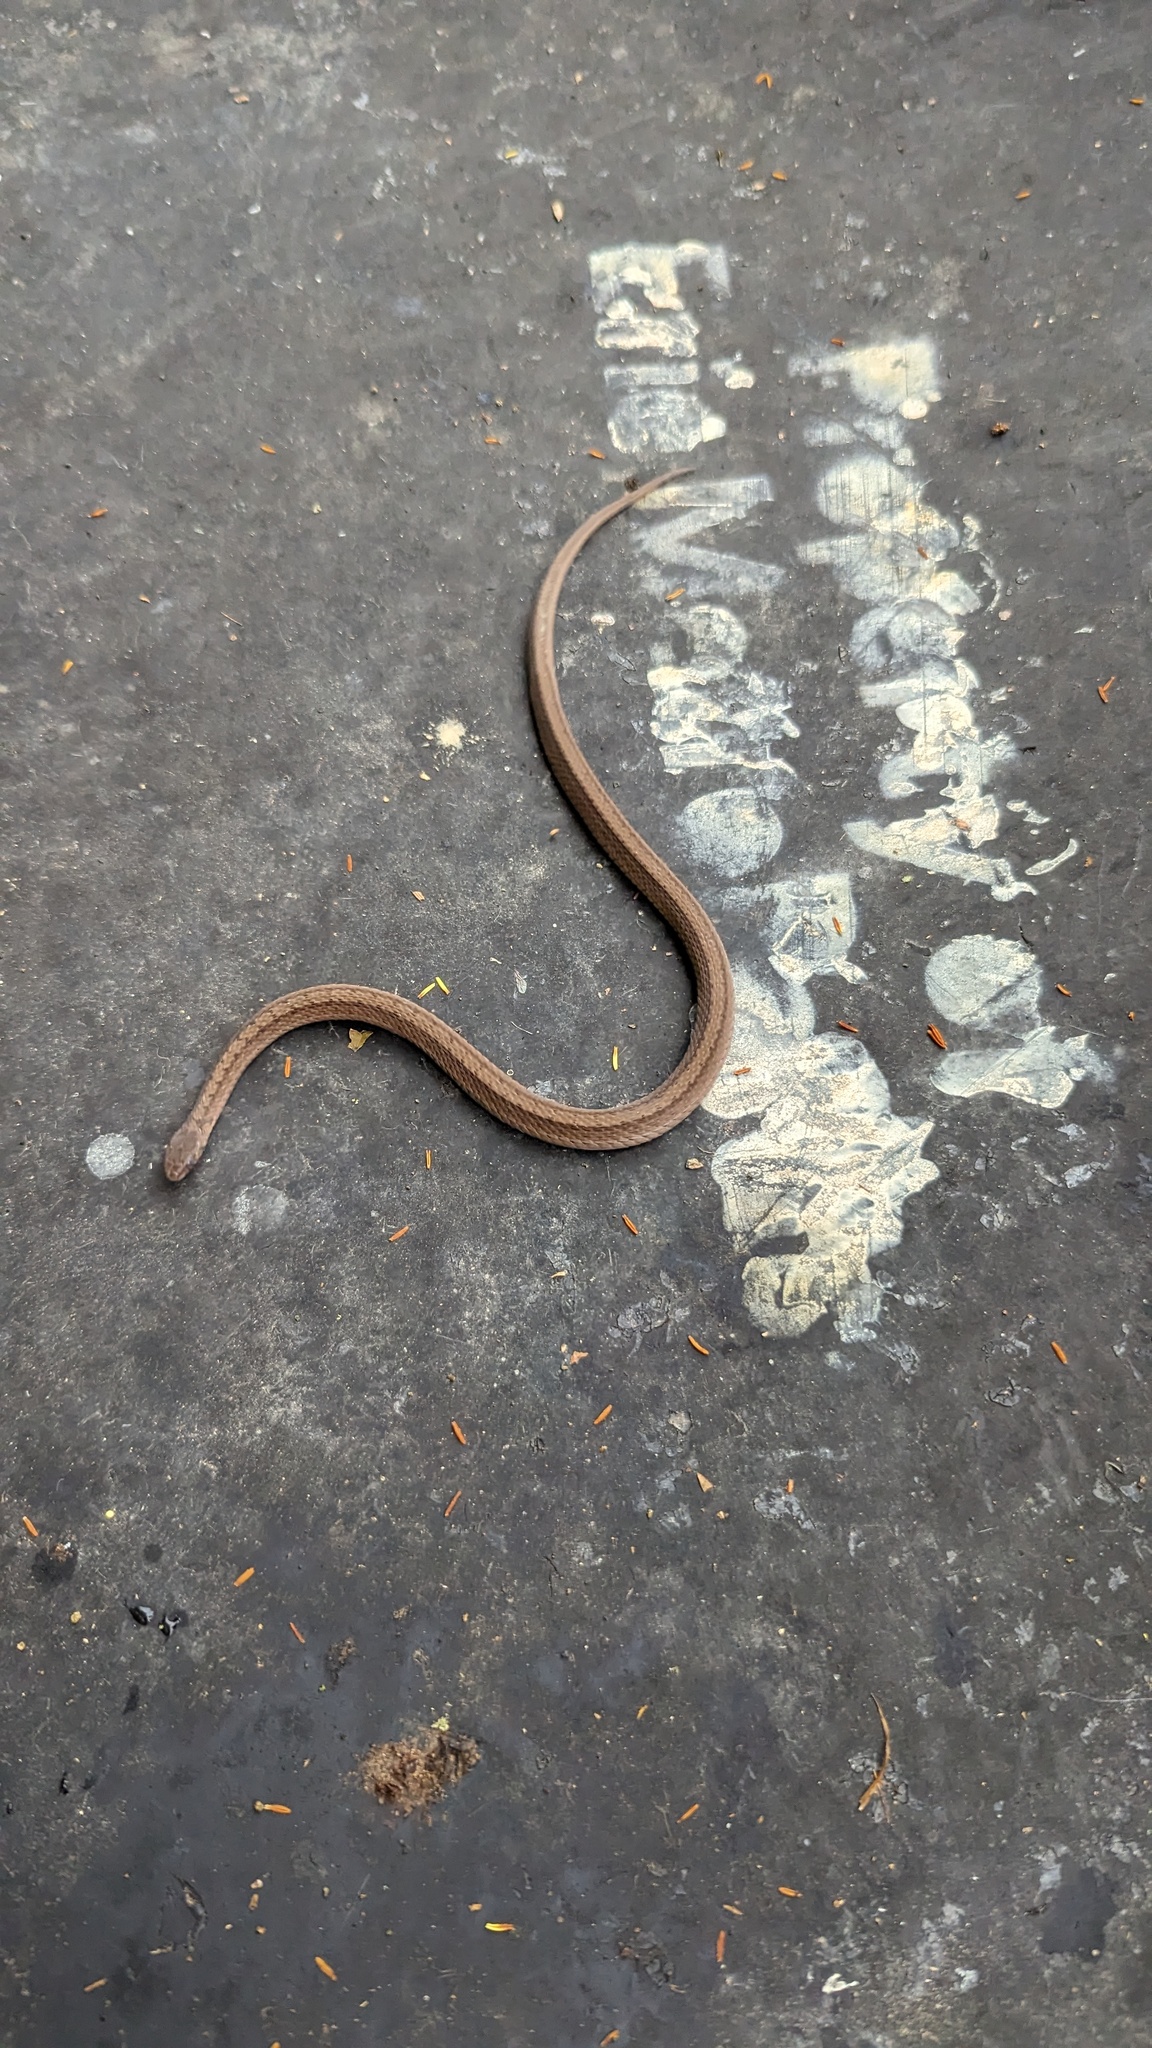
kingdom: Animalia
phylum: Chordata
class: Squamata
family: Colubridae
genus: Storeria
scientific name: Storeria dekayi
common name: (dekay’s) brown snake
